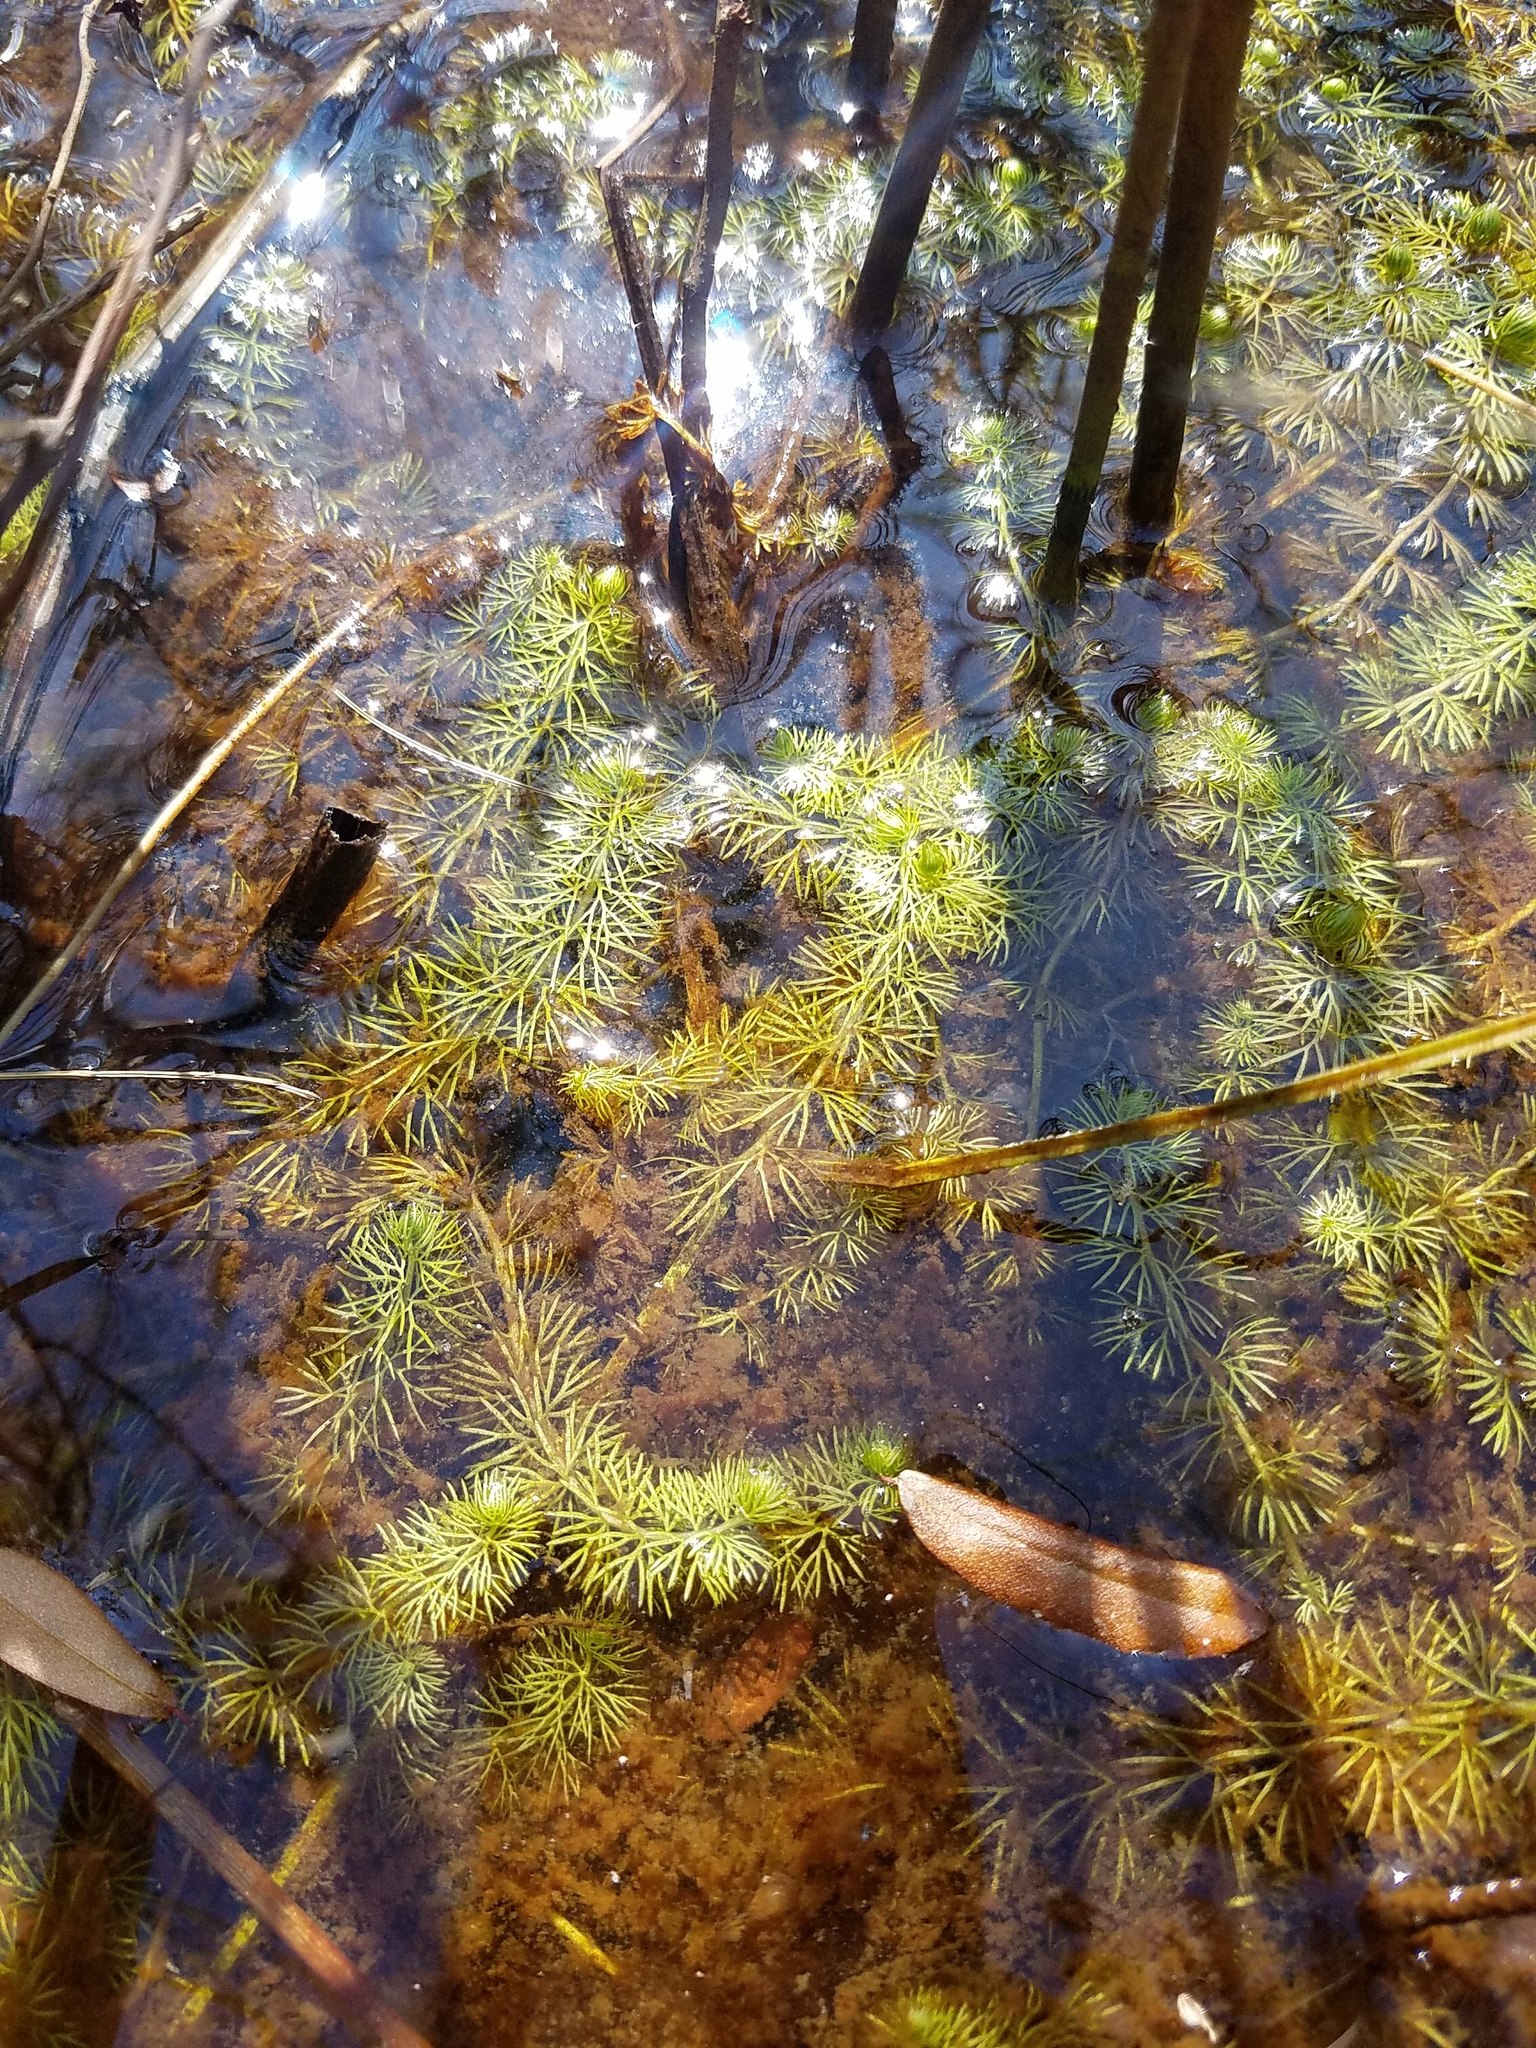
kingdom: Plantae
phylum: Tracheophyta
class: Magnoliopsida
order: Lamiales
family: Lentibulariaceae
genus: Utricularia
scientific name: Utricularia intermedia
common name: Intermediate bladderwort
